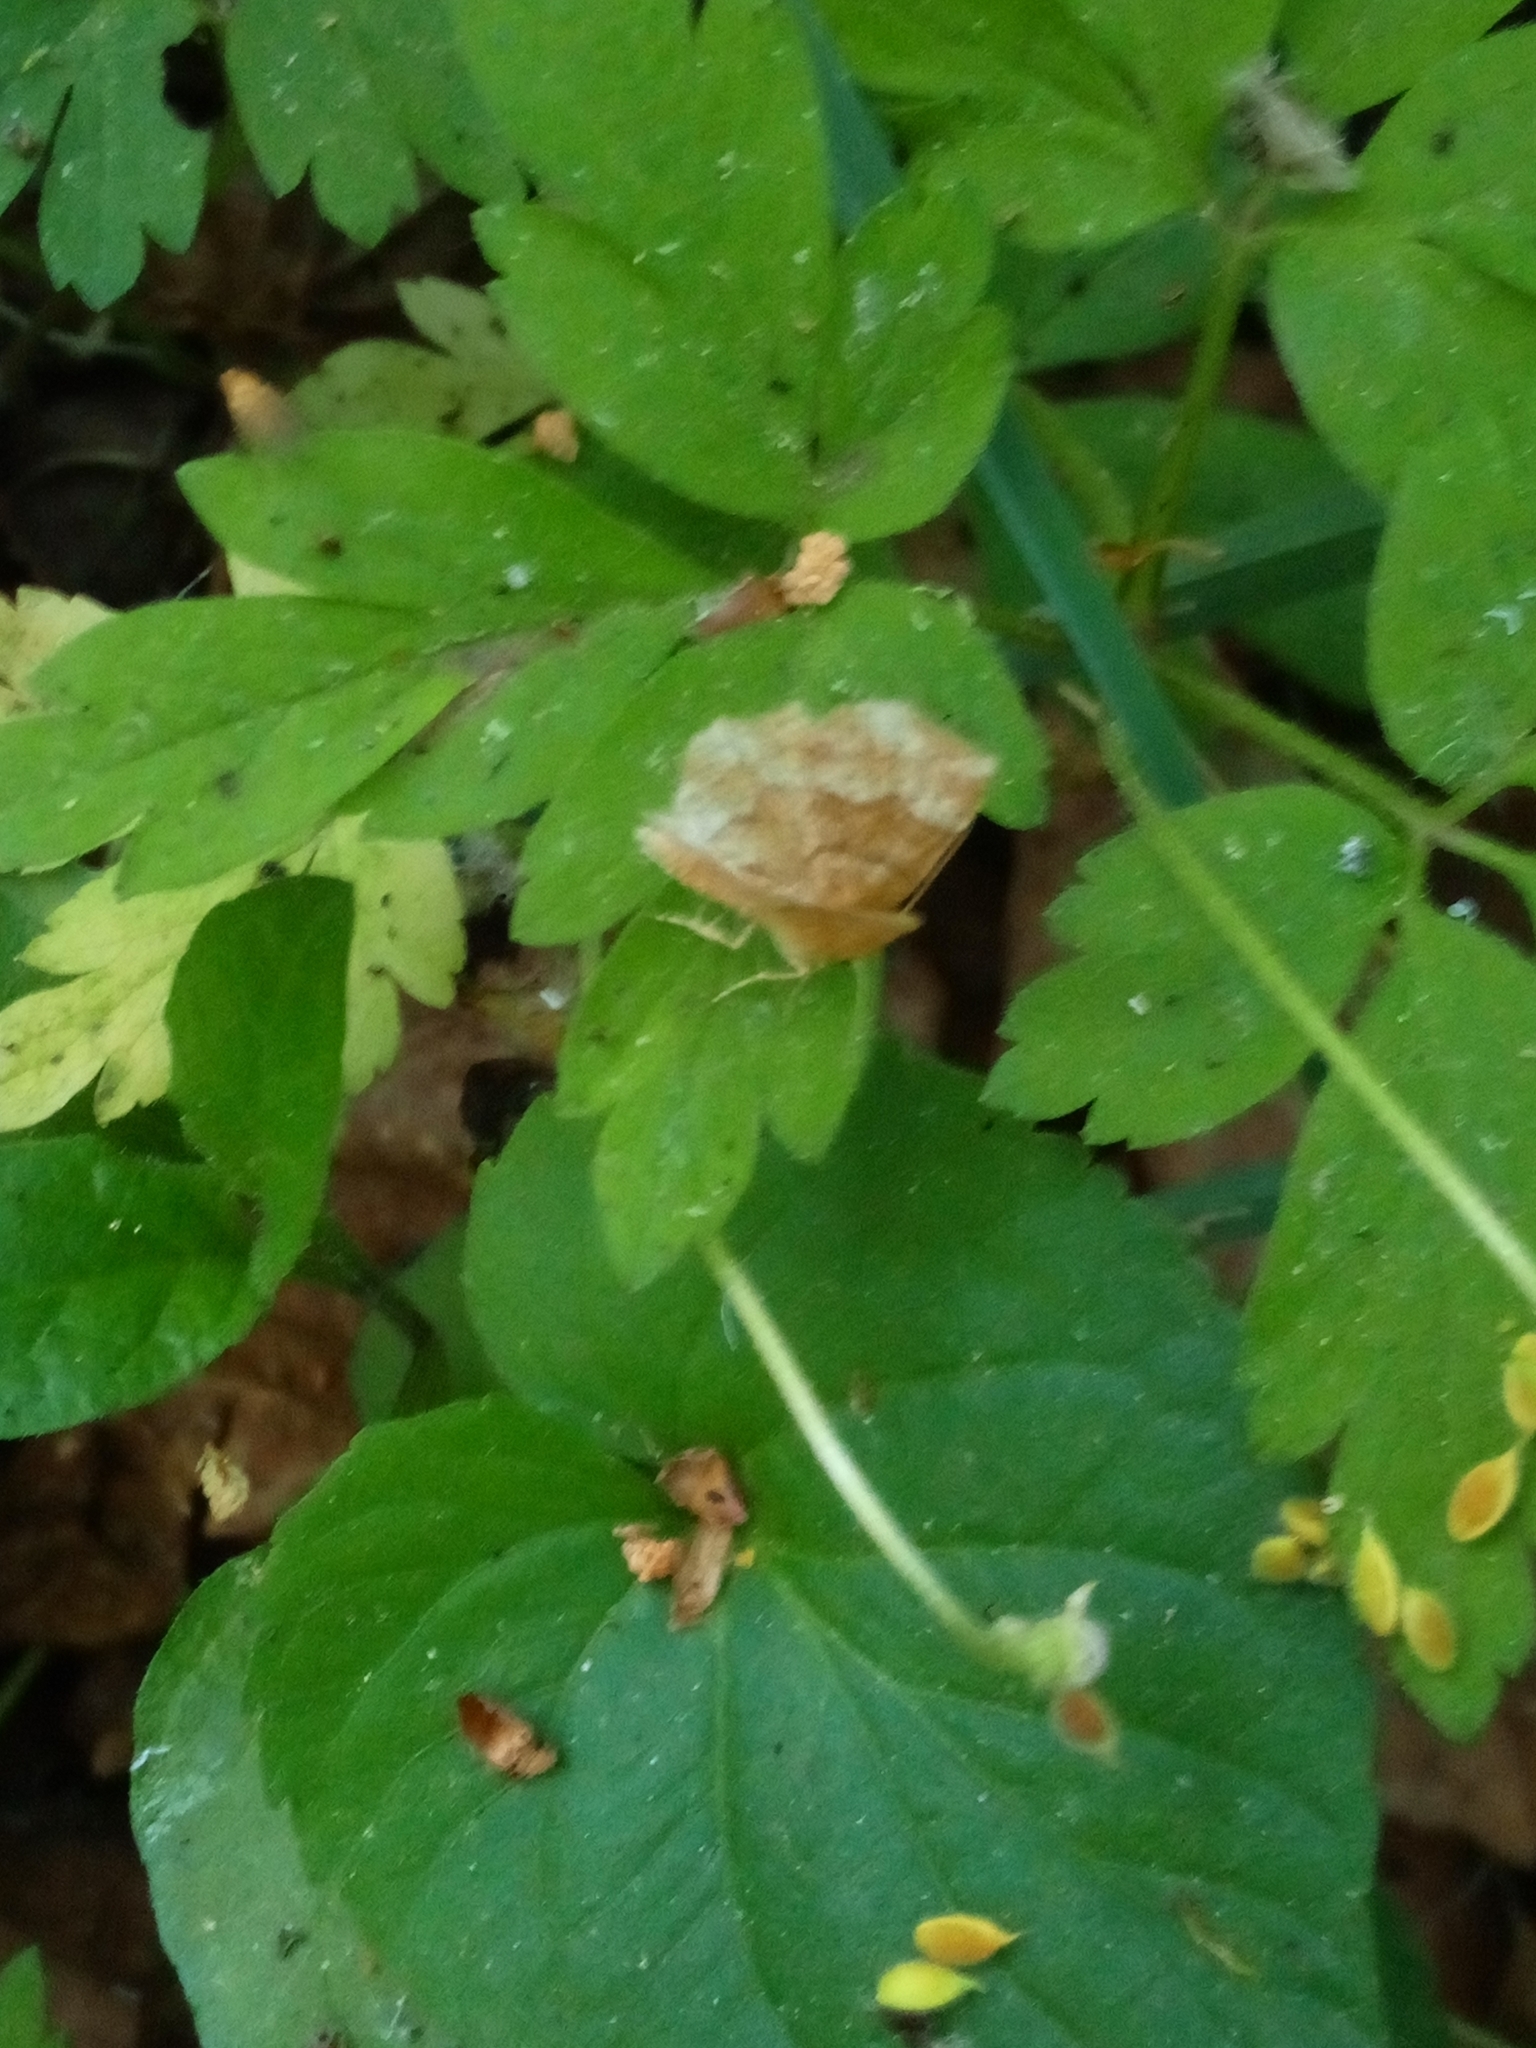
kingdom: Animalia
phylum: Arthropoda
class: Insecta
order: Lepidoptera
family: Geometridae
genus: Cepphis
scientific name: Cepphis advenaria
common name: Little thorn
